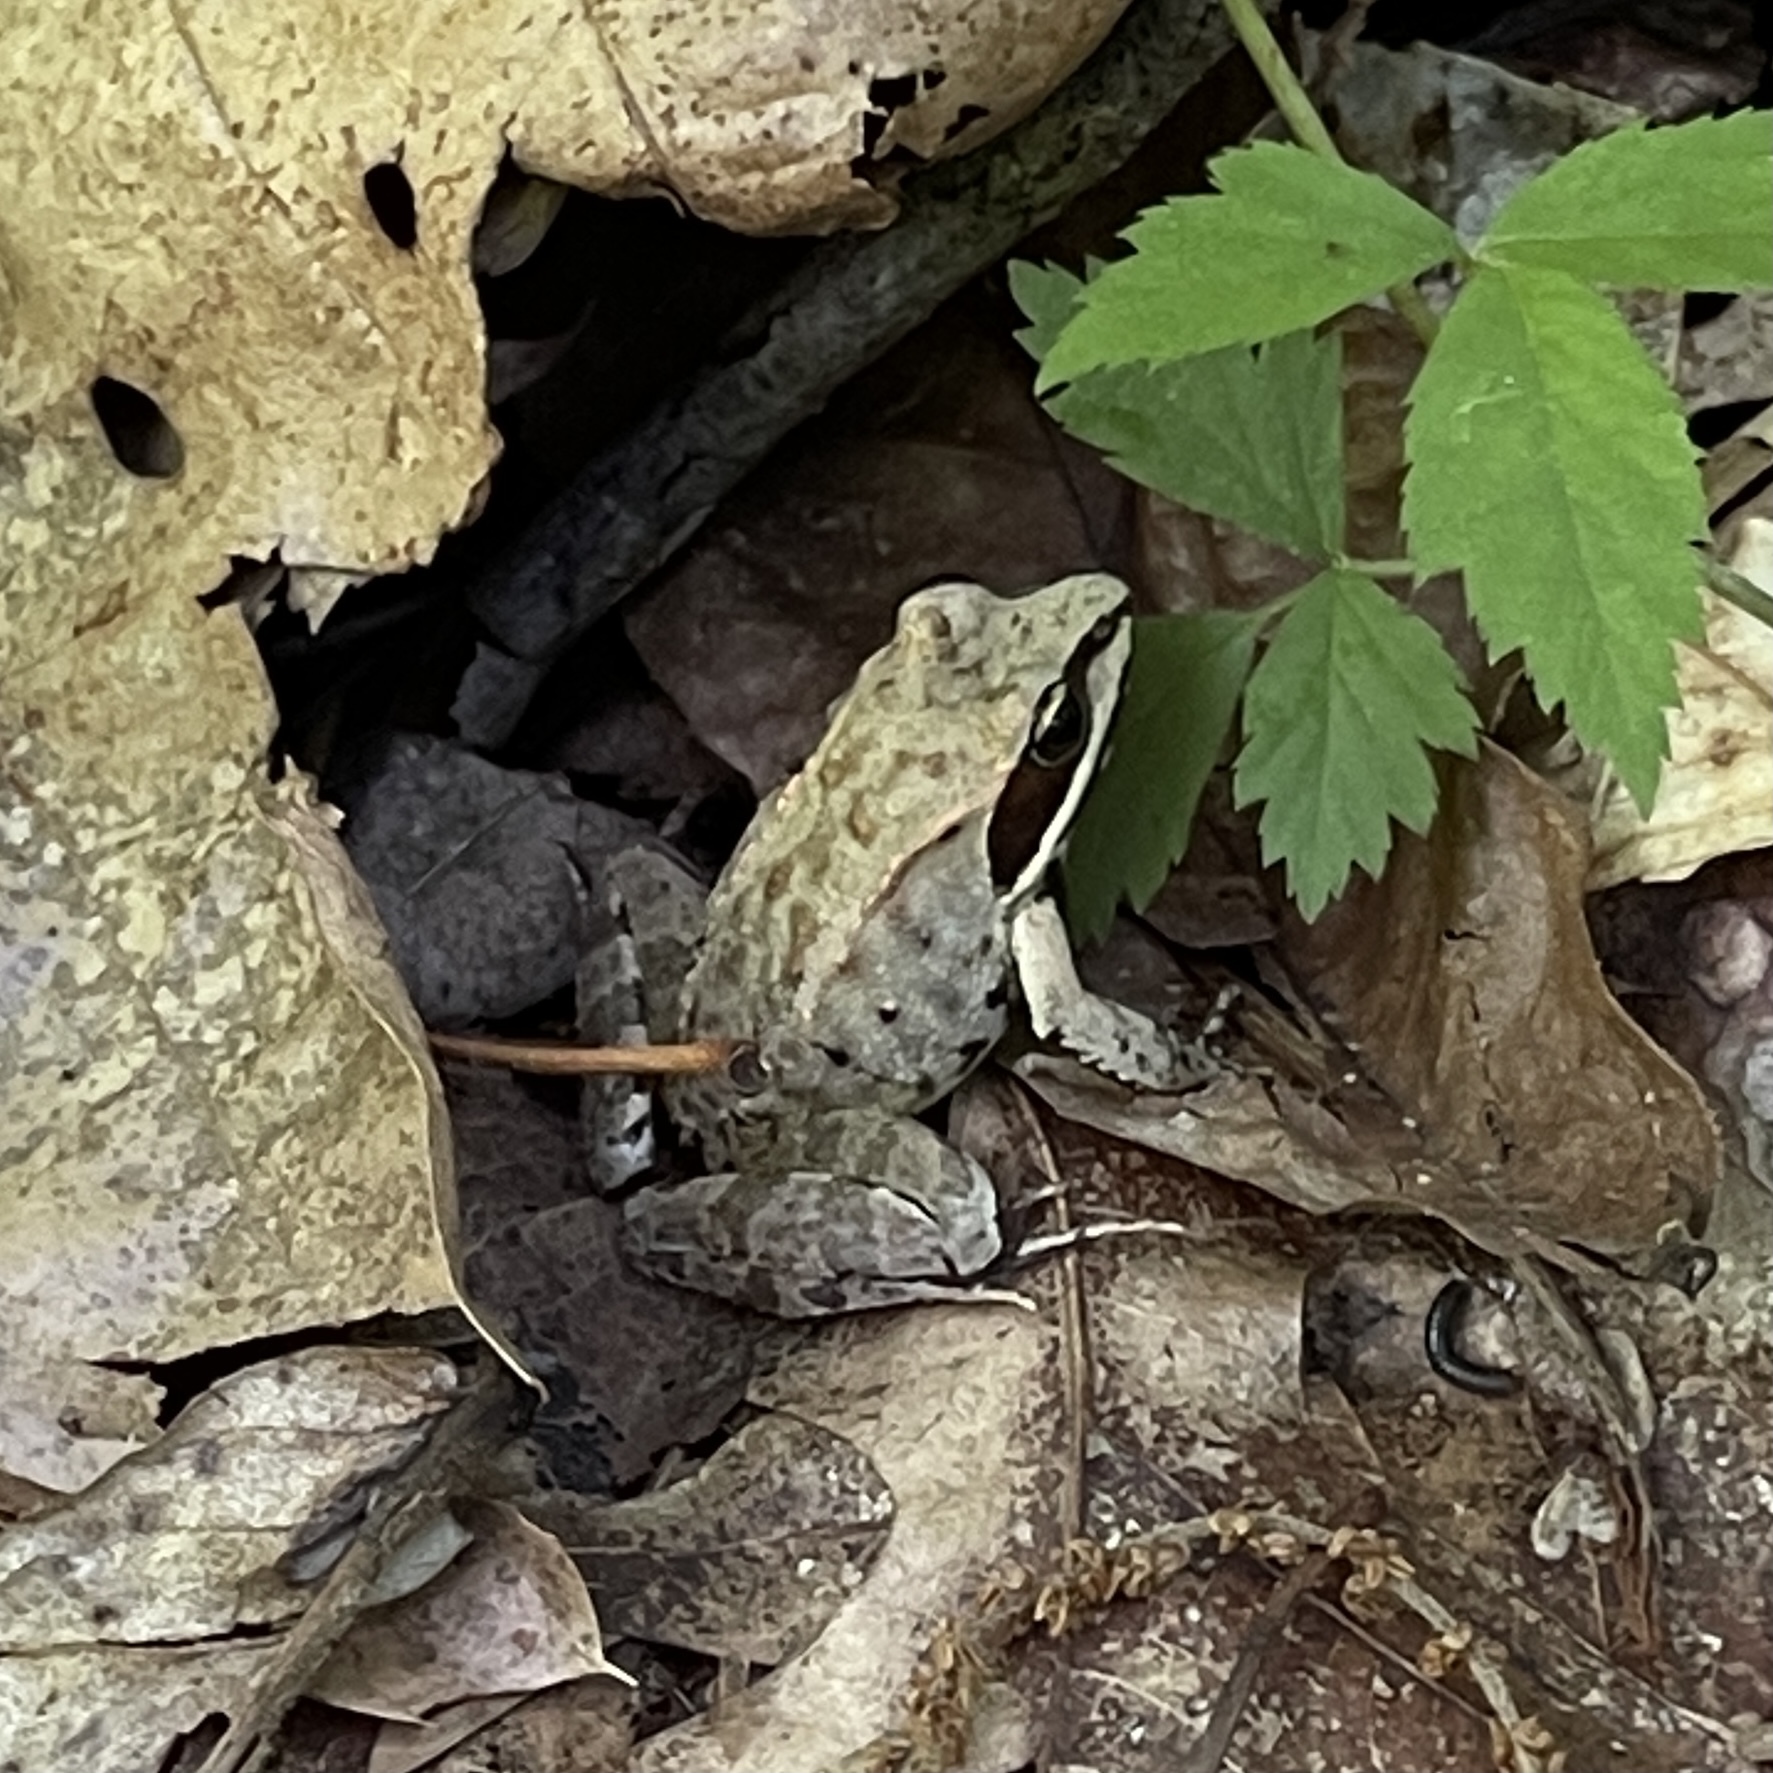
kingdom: Animalia
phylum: Chordata
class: Amphibia
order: Anura
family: Ranidae
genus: Lithobates
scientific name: Lithobates sylvaticus
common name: Wood frog
